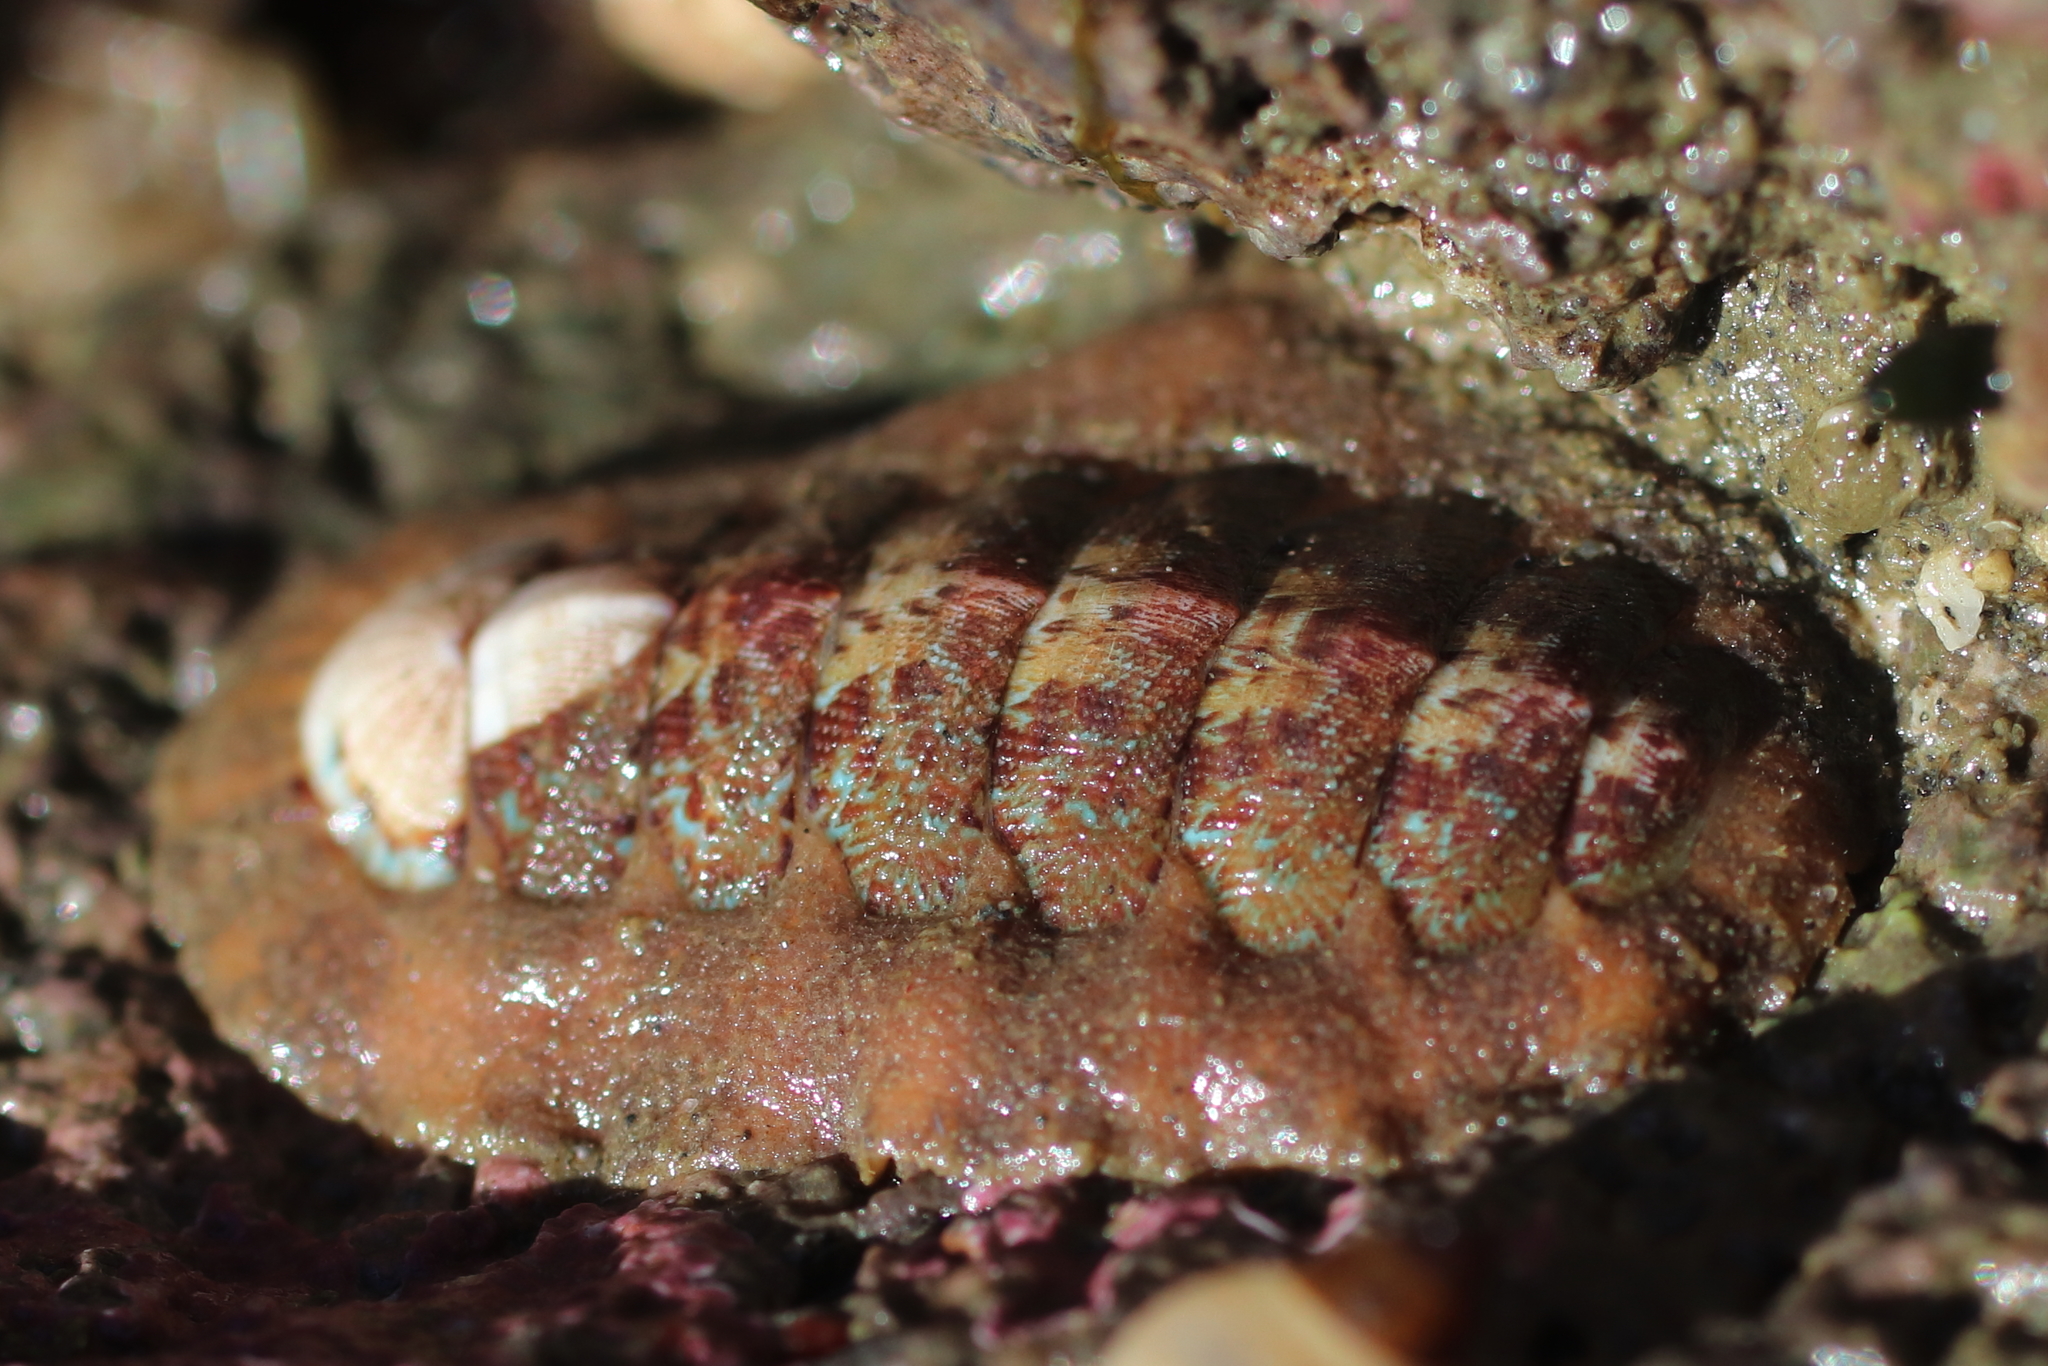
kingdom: Animalia
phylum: Mollusca
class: Polyplacophora
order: Chitonida
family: Mopaliidae
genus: Mopalia
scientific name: Mopalia swanii
